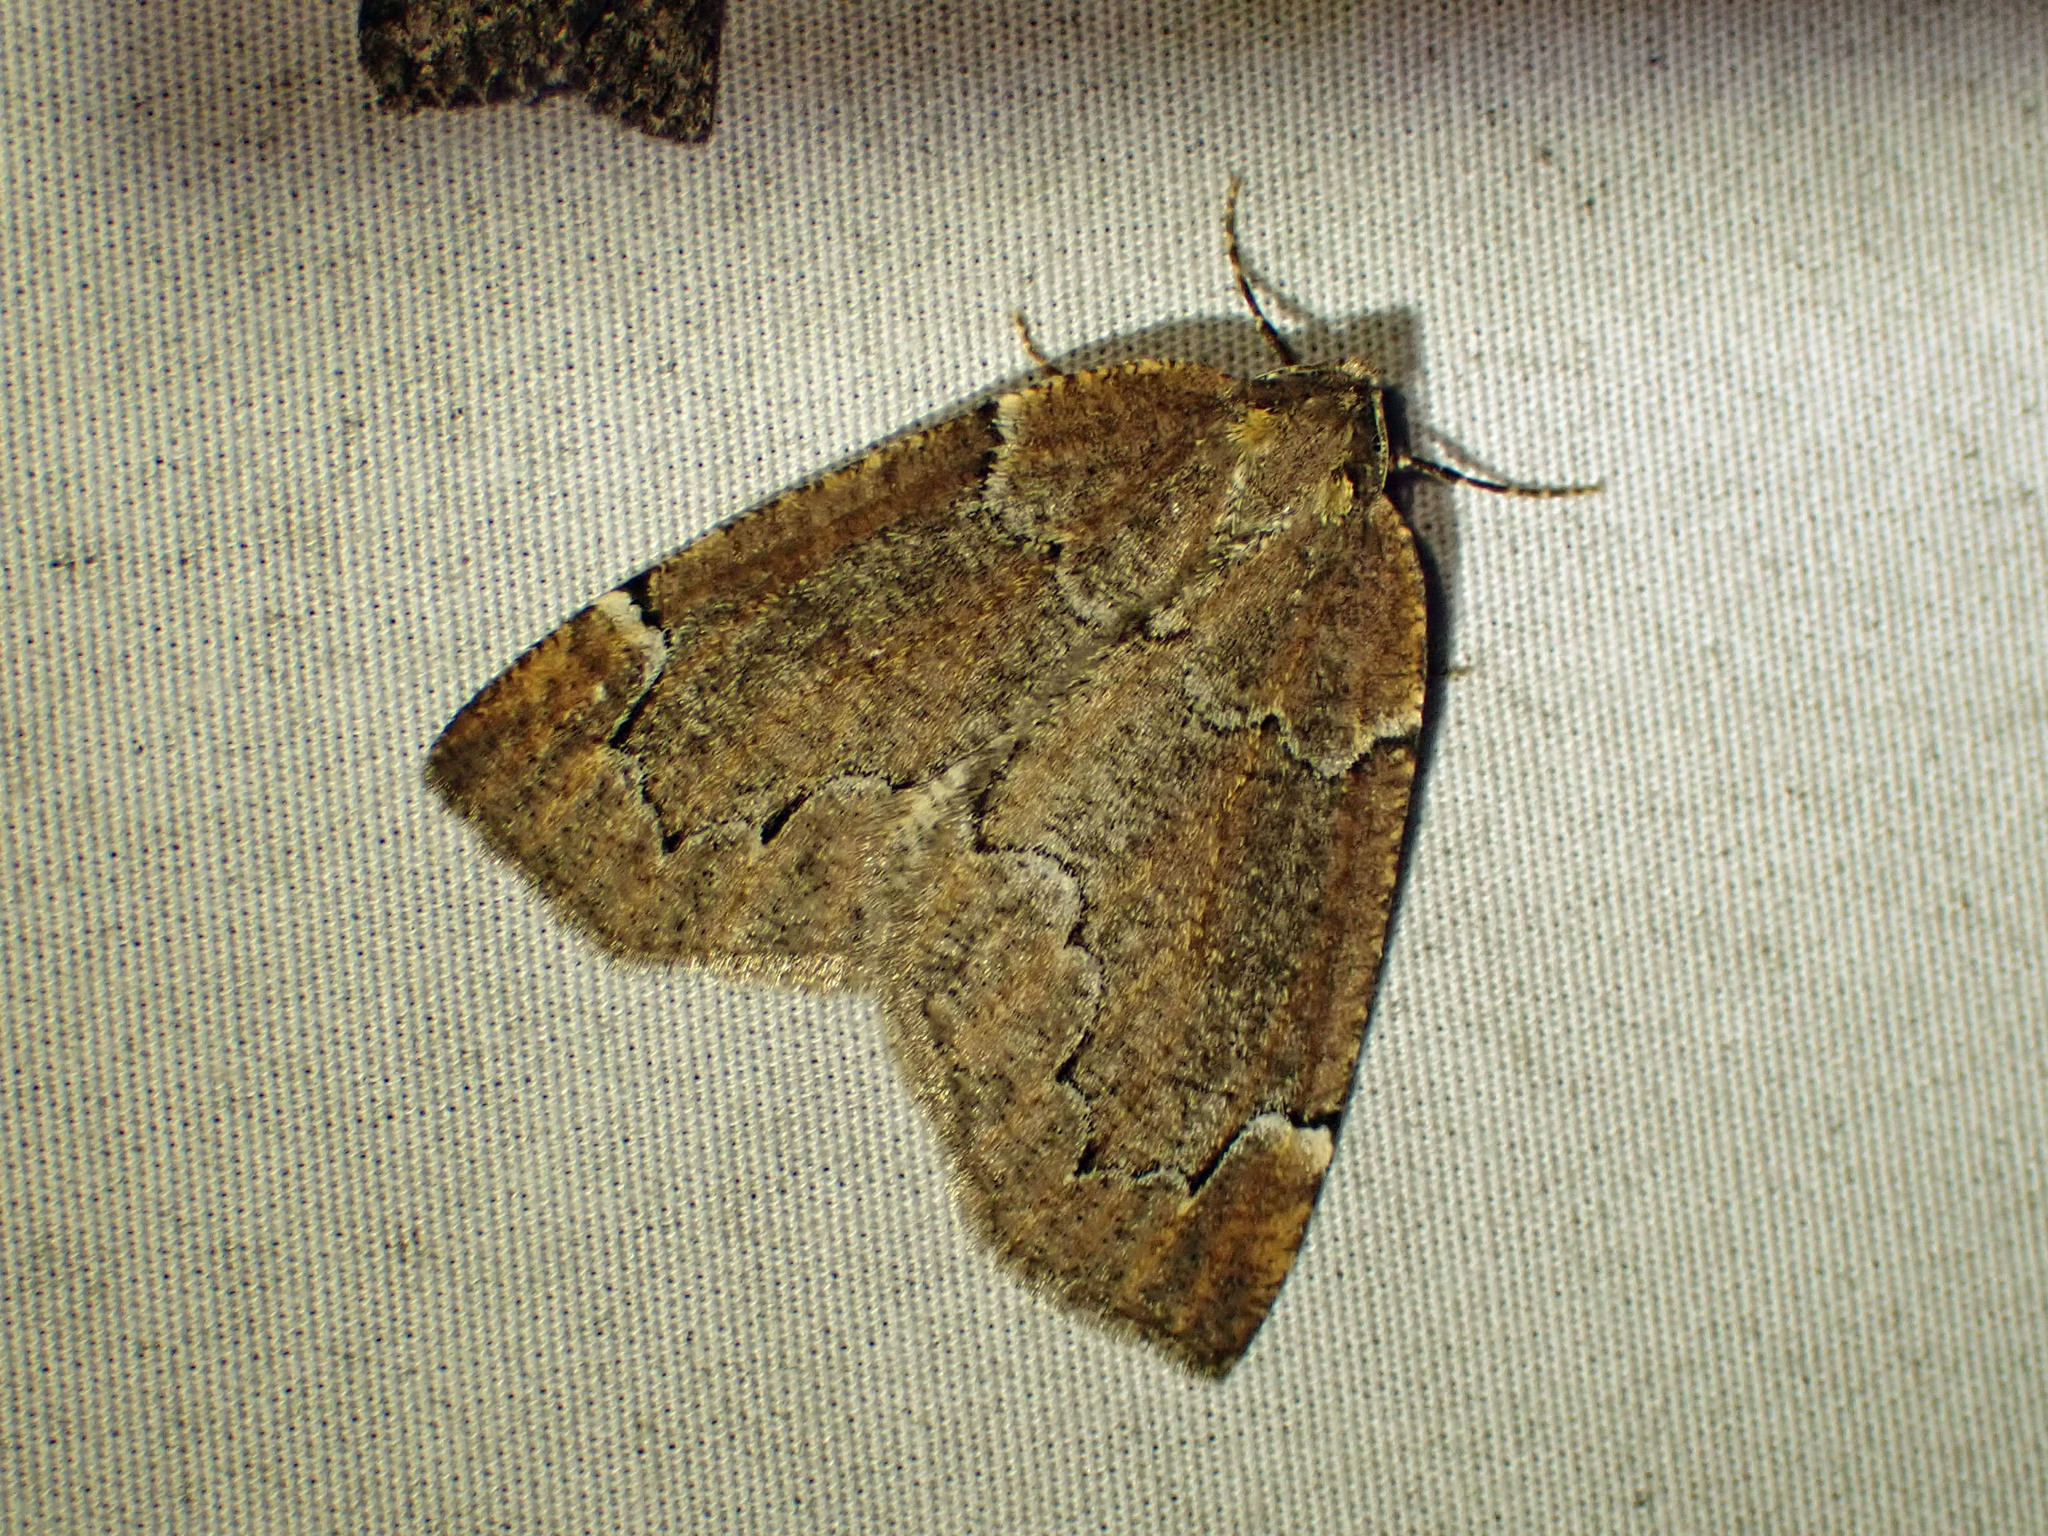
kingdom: Animalia
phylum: Arthropoda
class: Insecta
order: Lepidoptera
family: Geometridae
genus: Spodolepis
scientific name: Spodolepis substriataria
